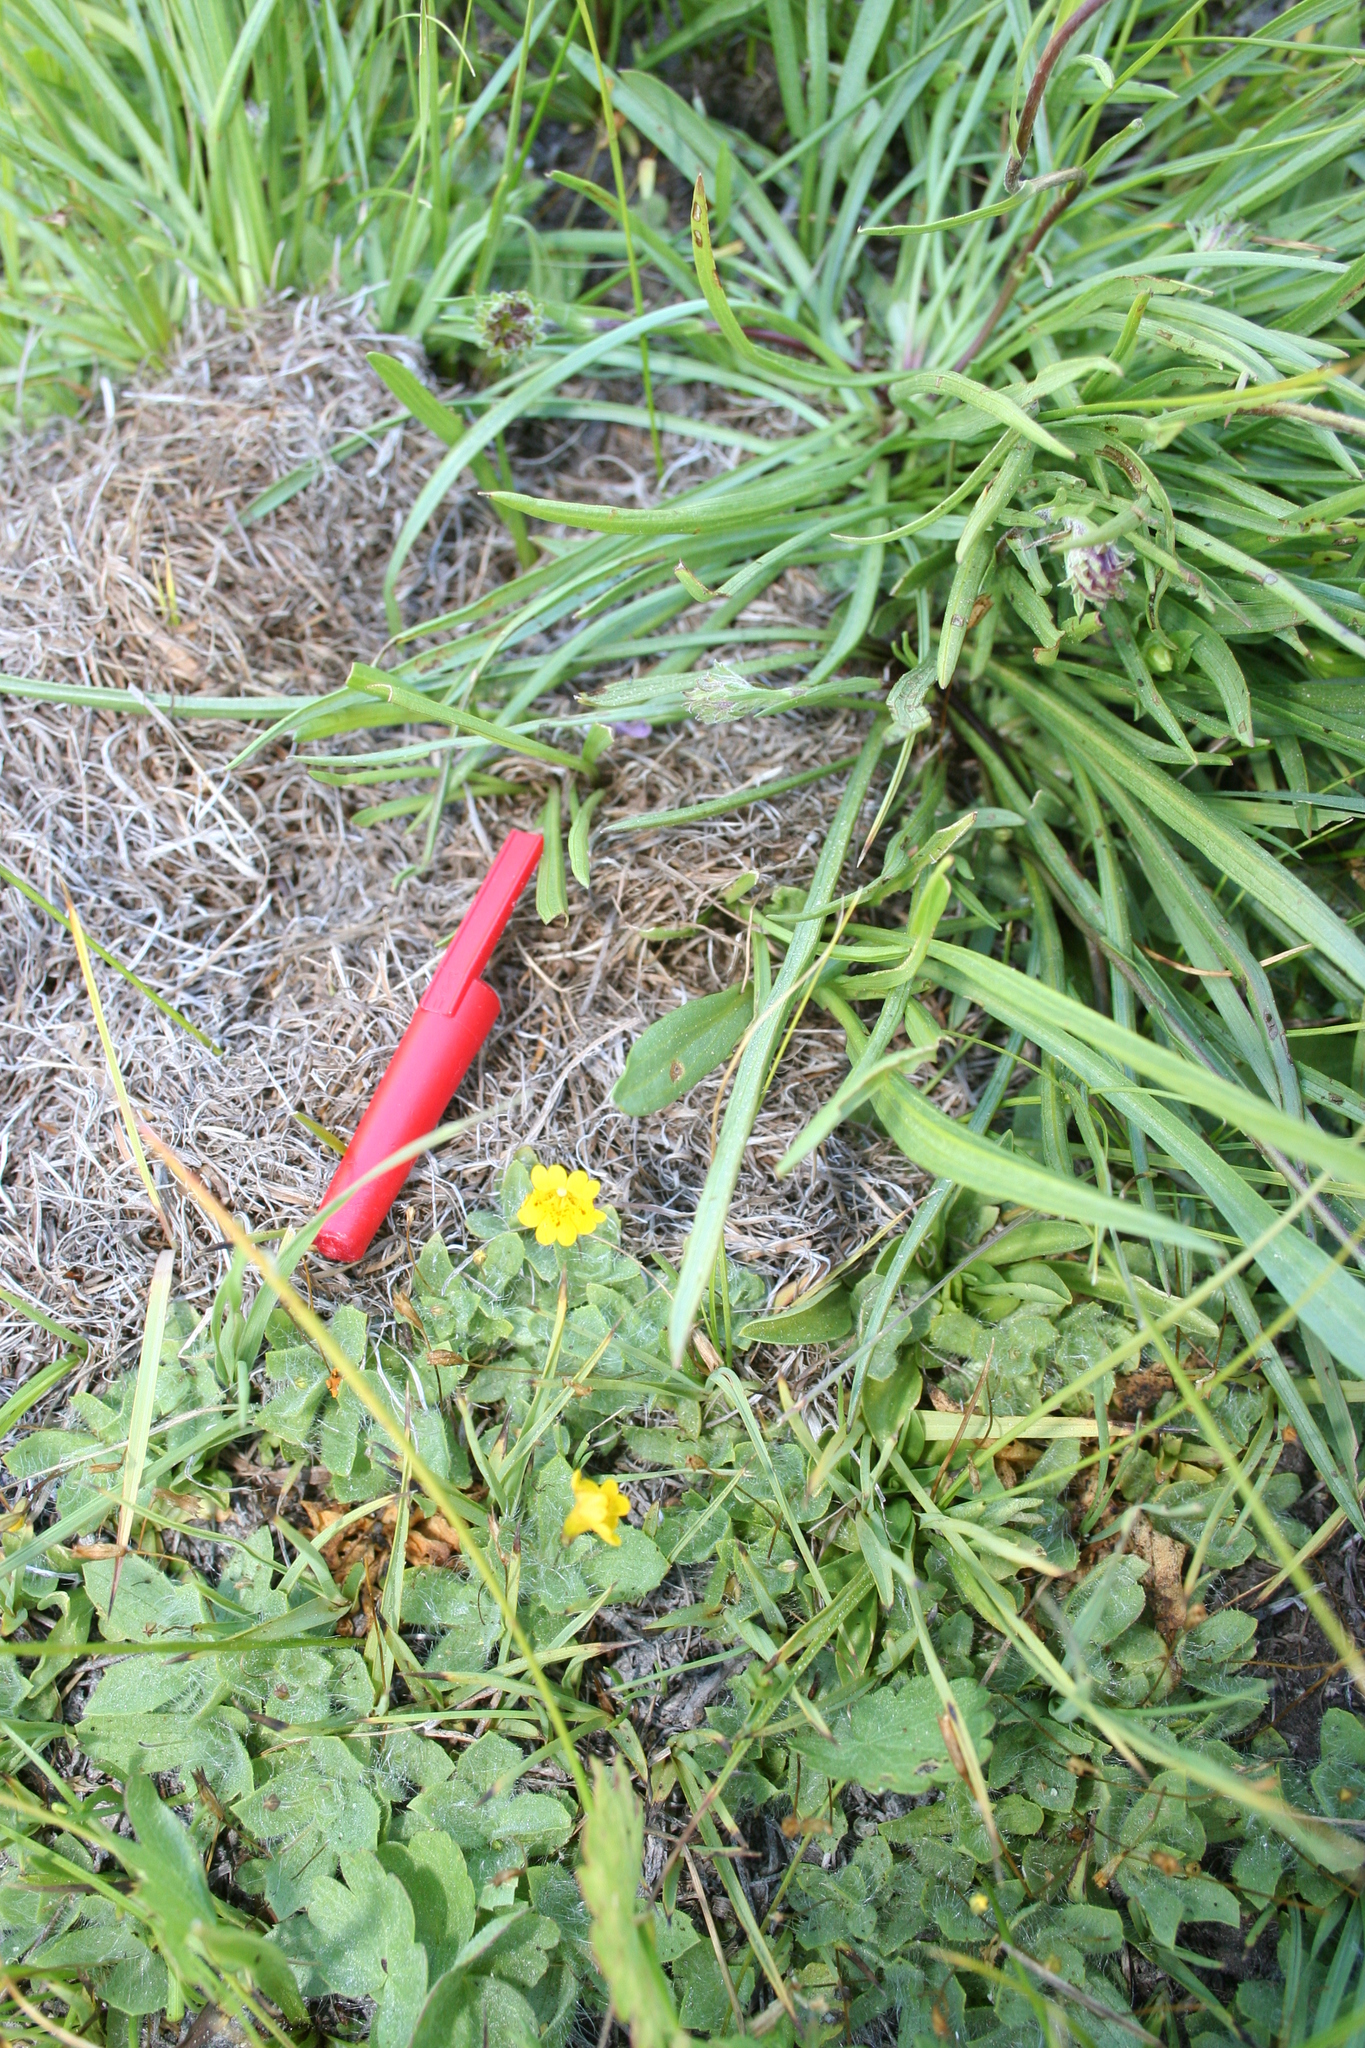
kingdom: Plantae
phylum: Tracheophyta
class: Magnoliopsida
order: Lamiales
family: Phrymaceae
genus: Erythranthe
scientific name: Erythranthe primuloides
